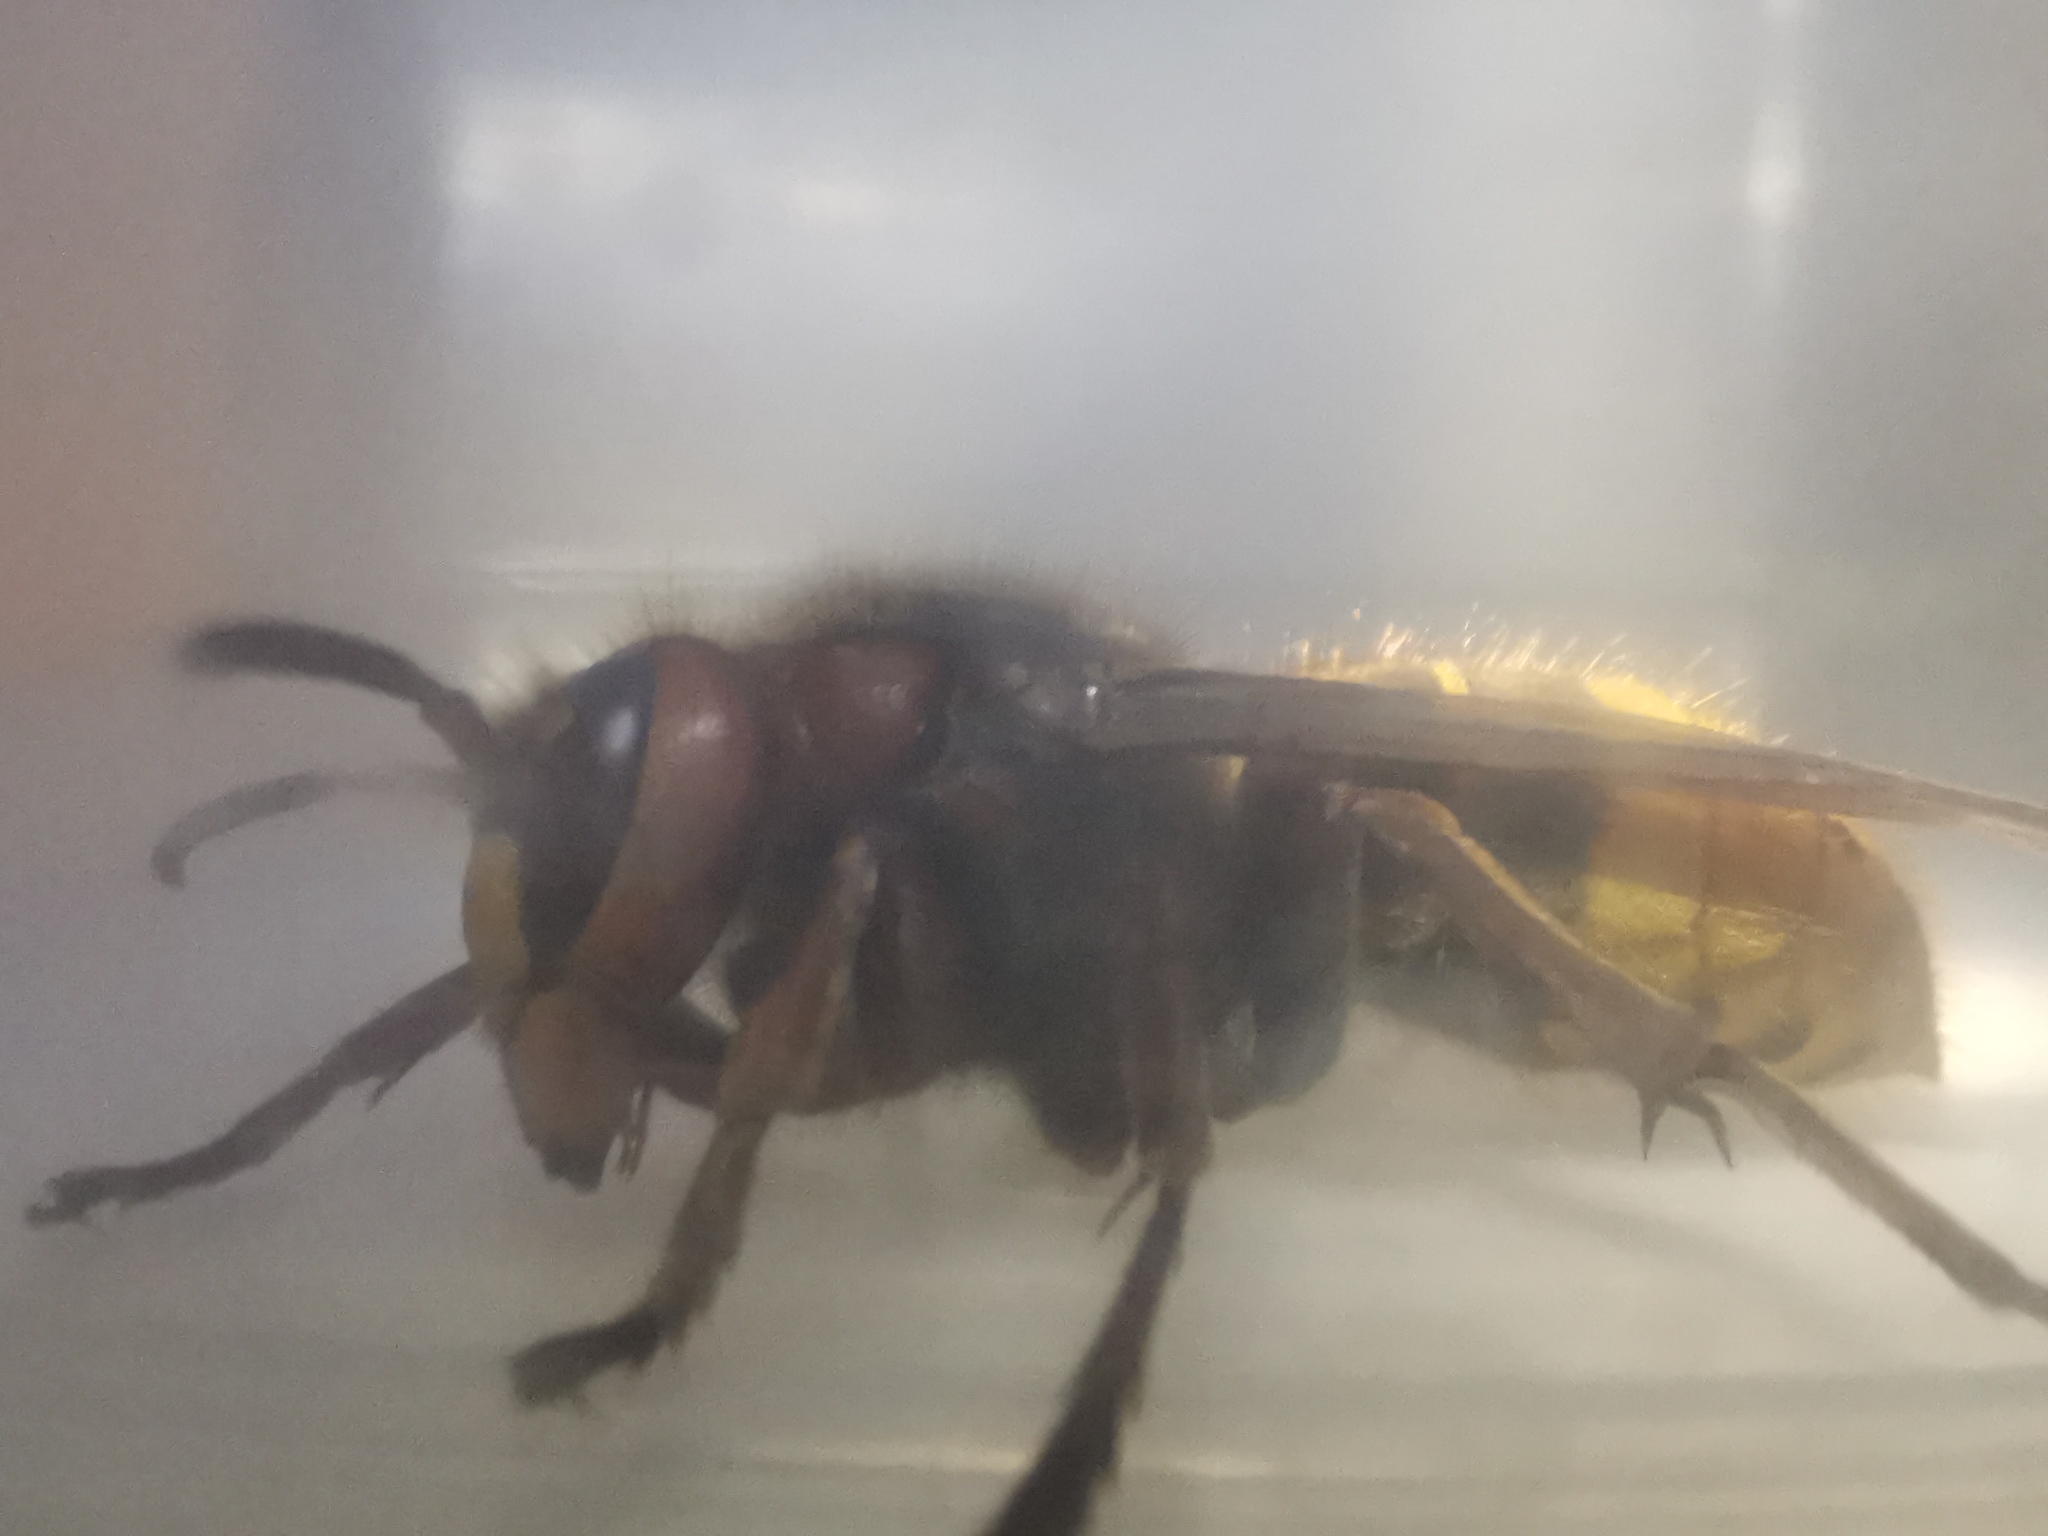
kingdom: Animalia
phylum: Arthropoda
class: Insecta
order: Hymenoptera
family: Vespidae
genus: Vespa
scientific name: Vespa crabro
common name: Hornet
